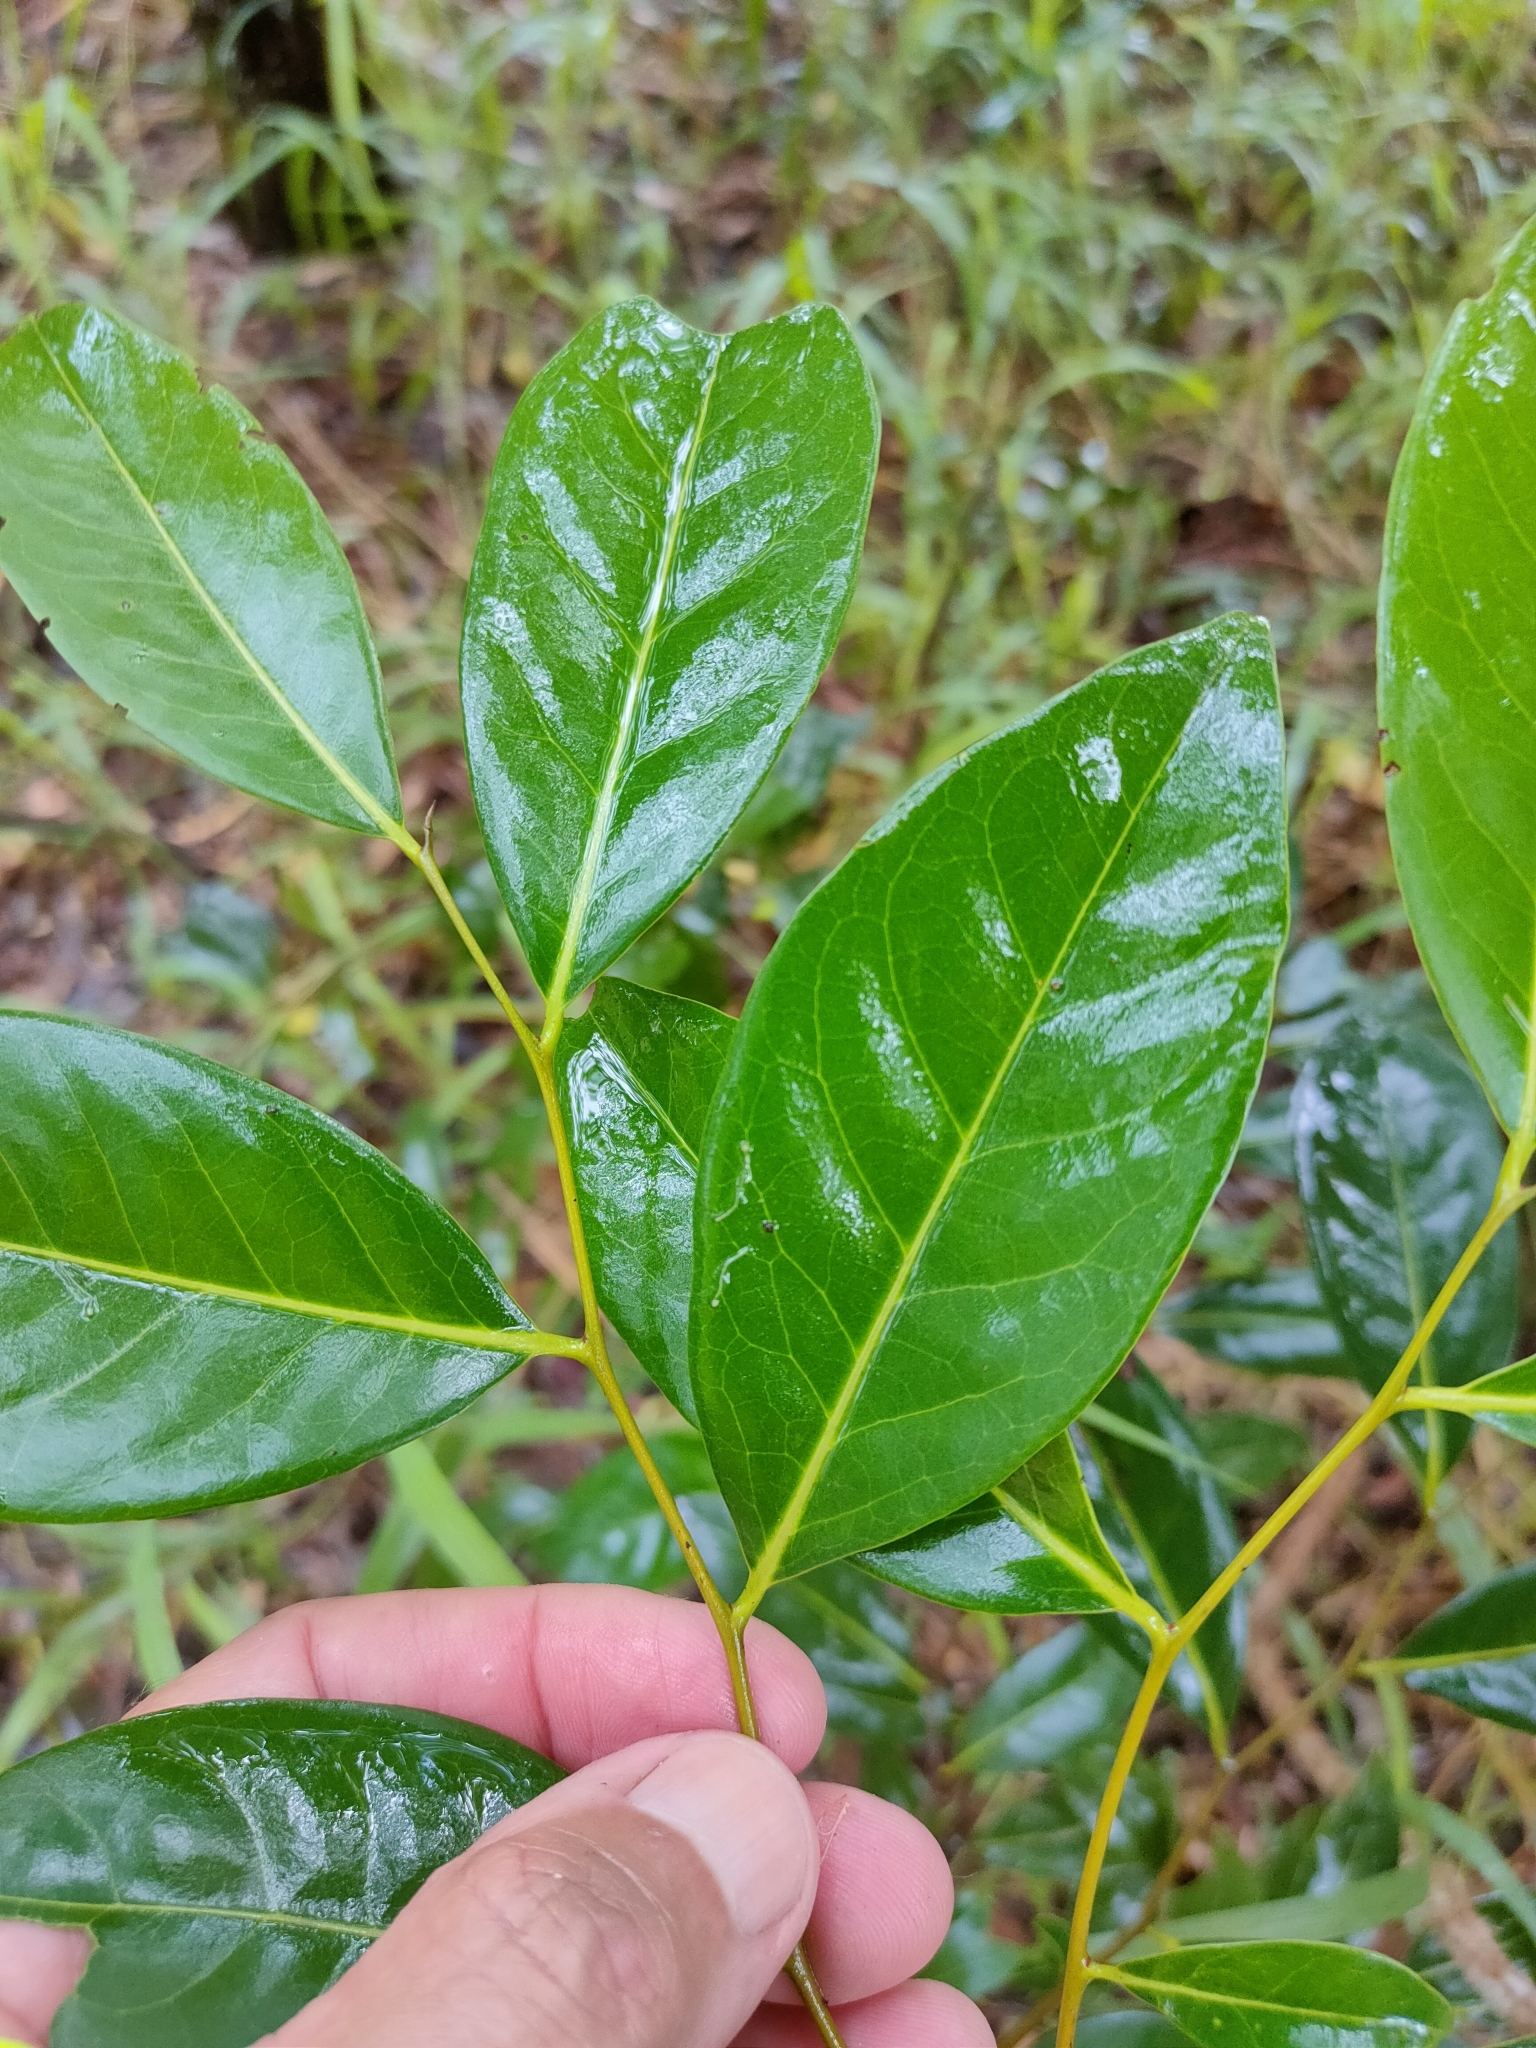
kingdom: Plantae
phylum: Tracheophyta
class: Magnoliopsida
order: Ericales
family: Ebenaceae
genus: Diospyros
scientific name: Diospyros fasciculosa
